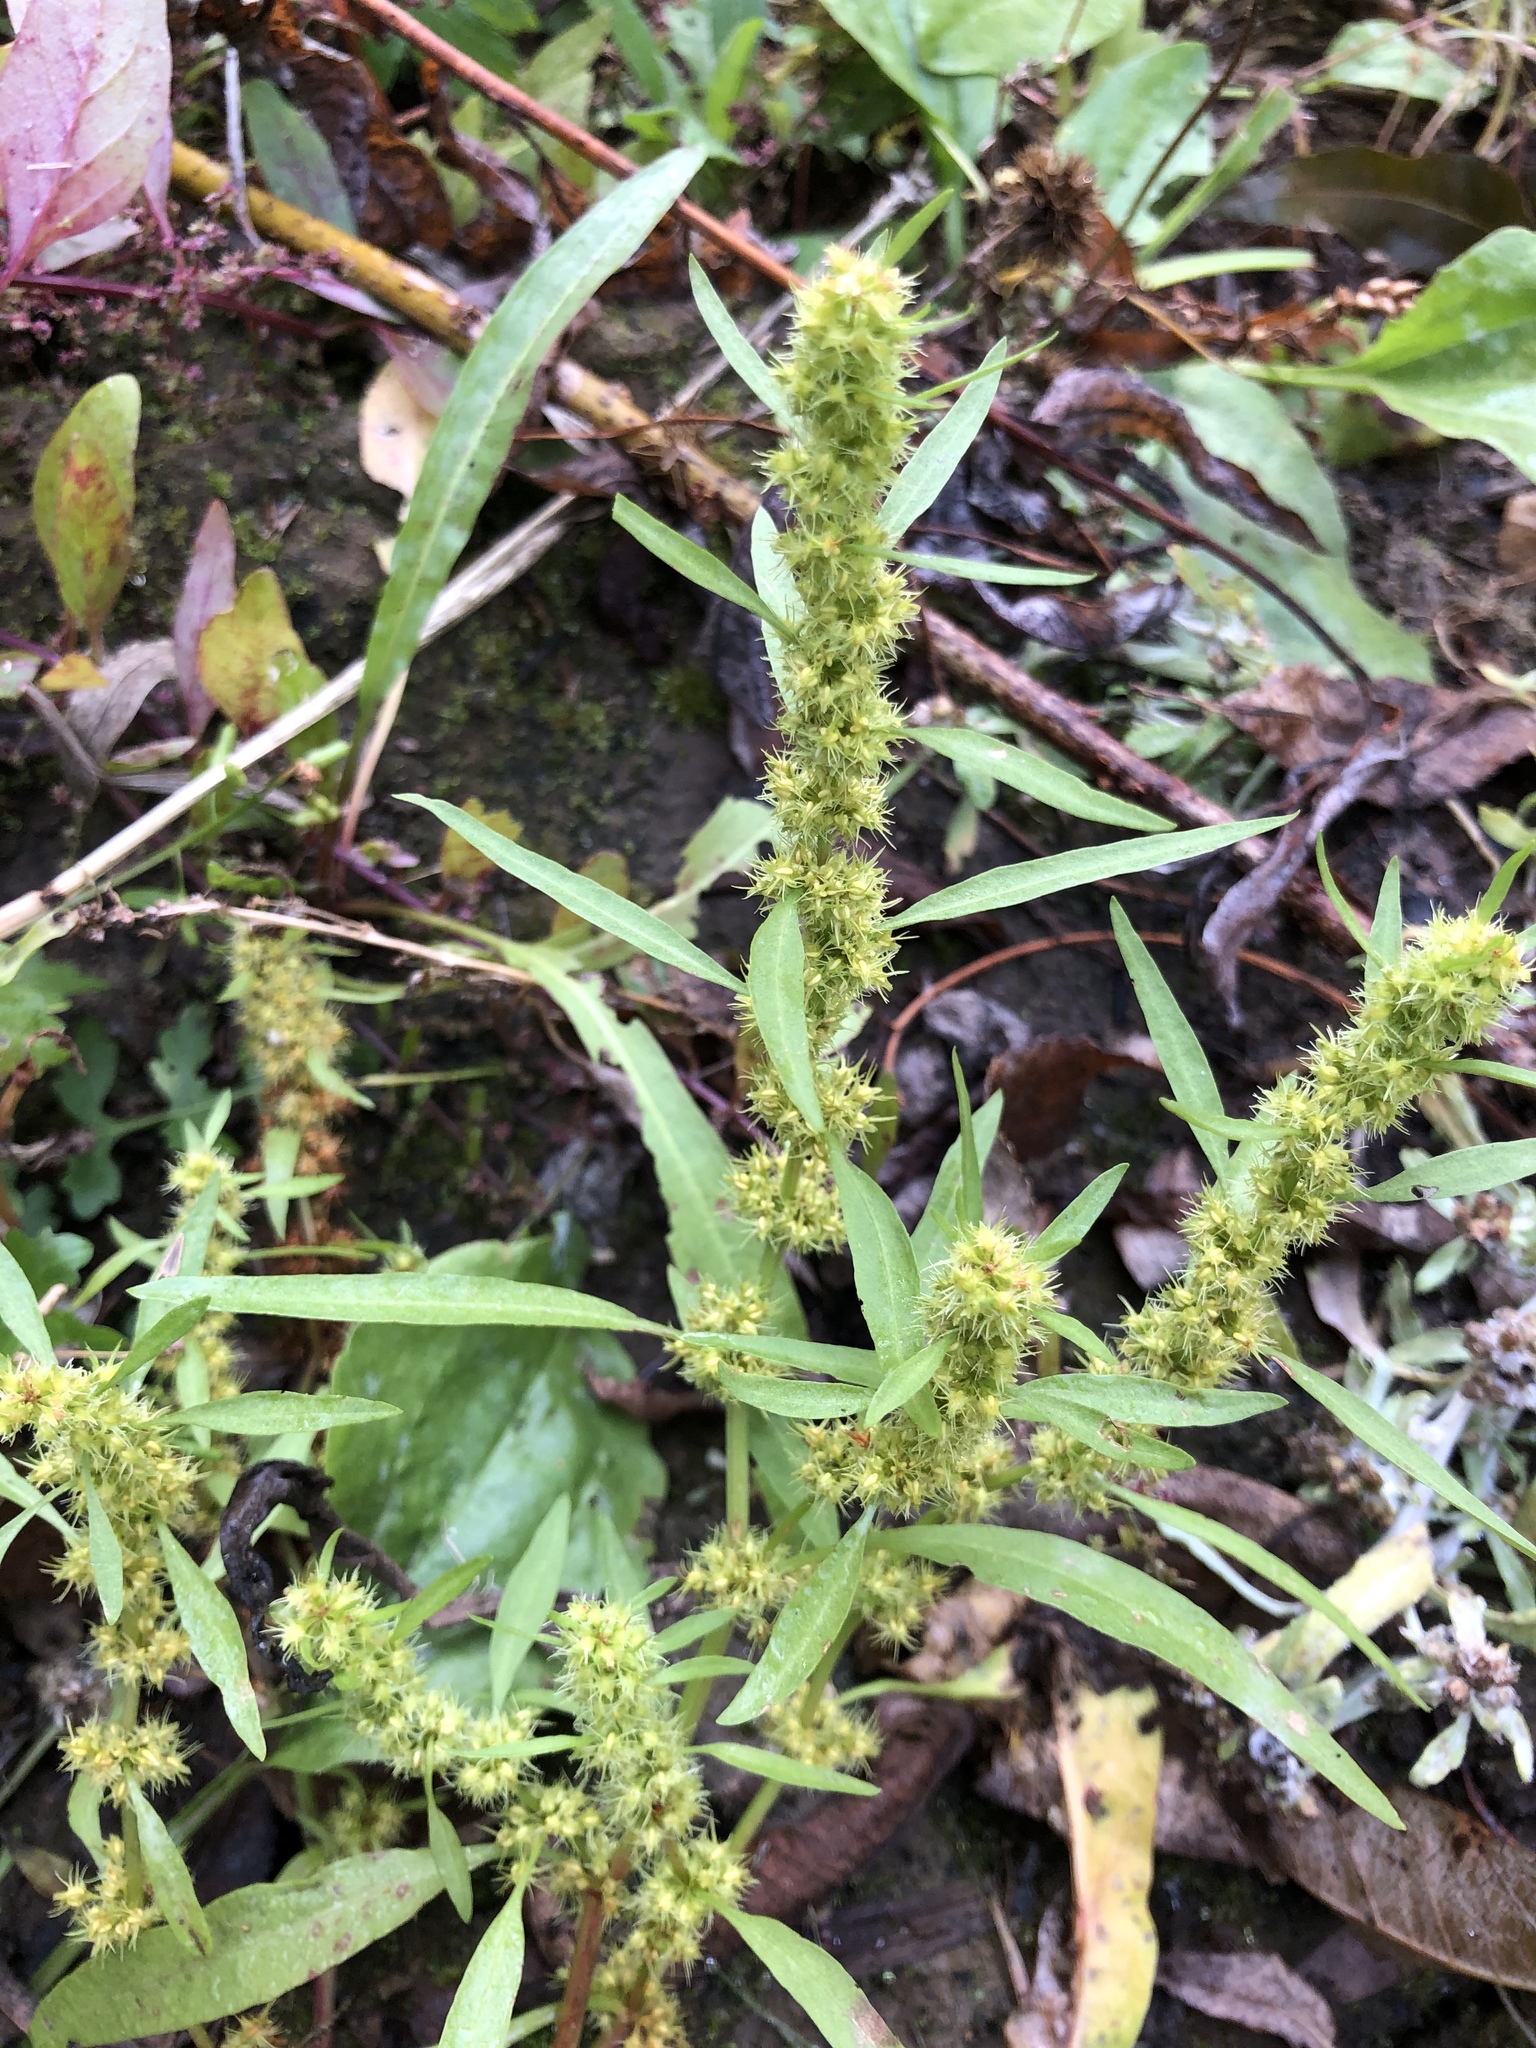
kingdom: Plantae
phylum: Tracheophyta
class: Magnoliopsida
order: Caryophyllales
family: Polygonaceae
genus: Rumex
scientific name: Rumex maritimus
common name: Golden dock
